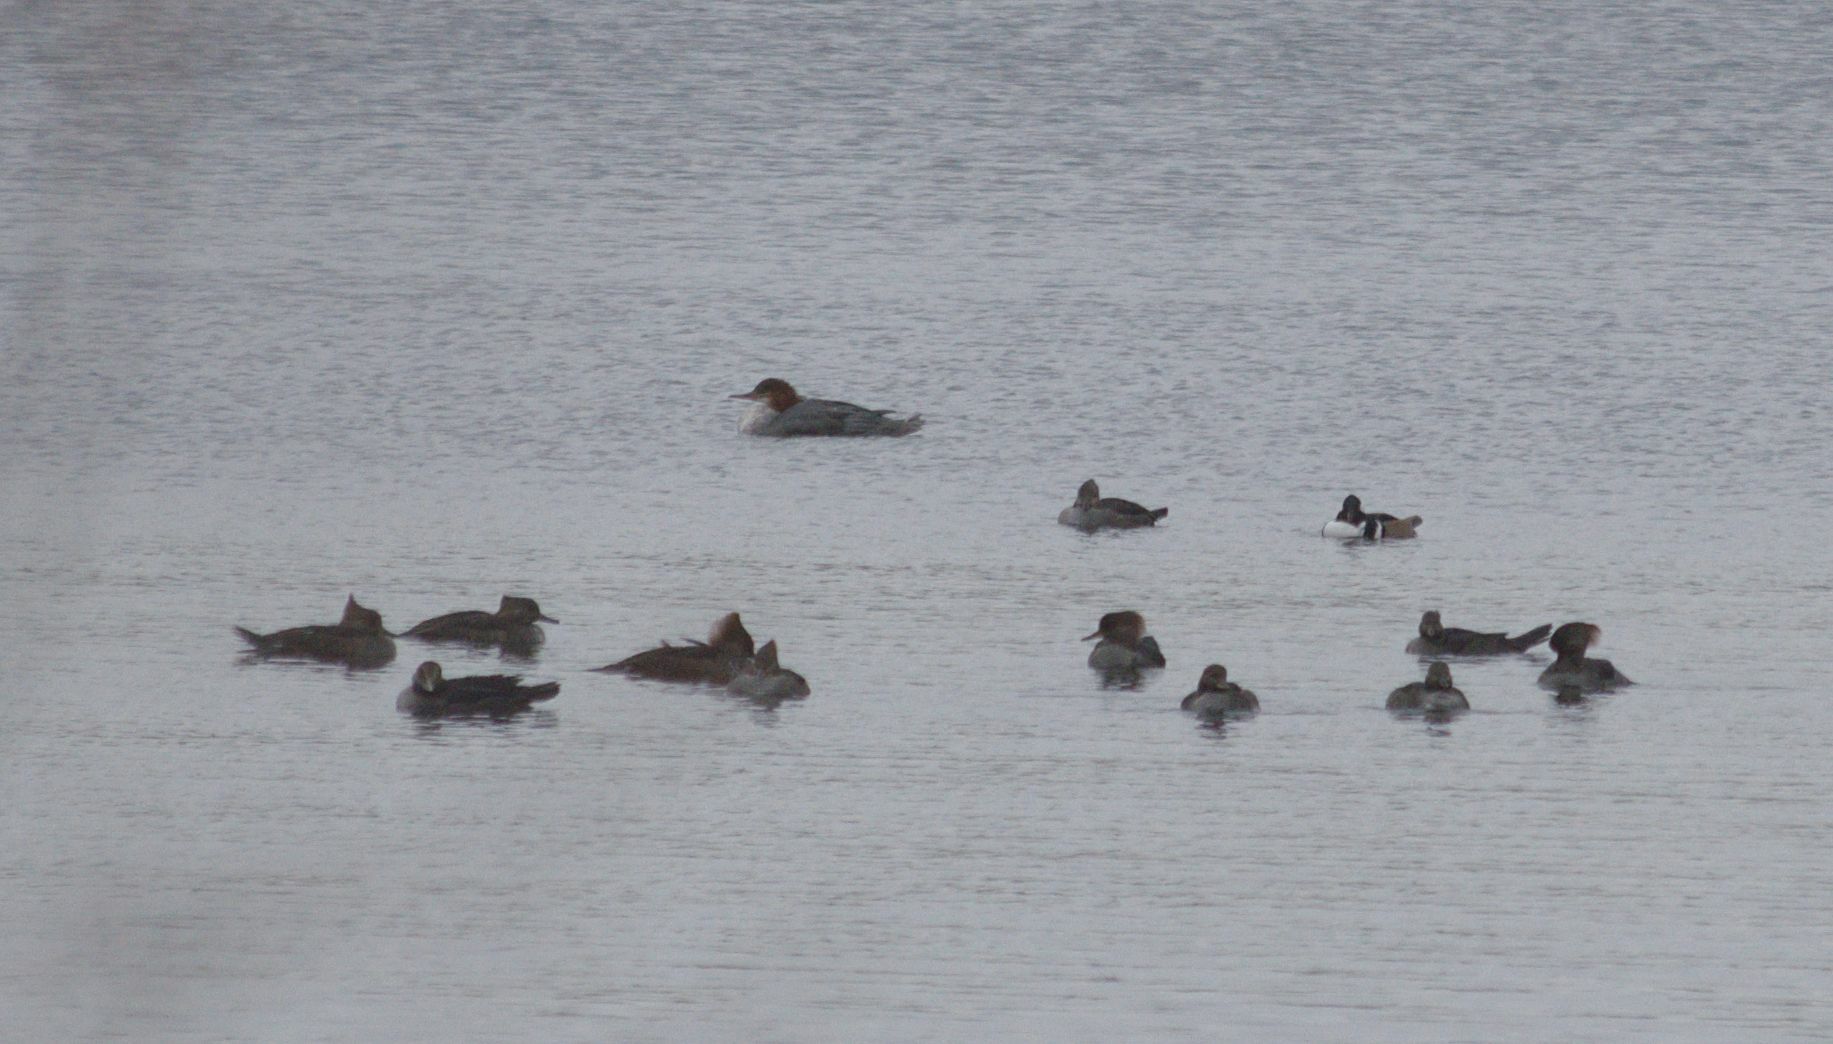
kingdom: Animalia
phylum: Chordata
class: Aves
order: Anseriformes
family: Anatidae
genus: Lophodytes
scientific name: Lophodytes cucullatus
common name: Hooded merganser
